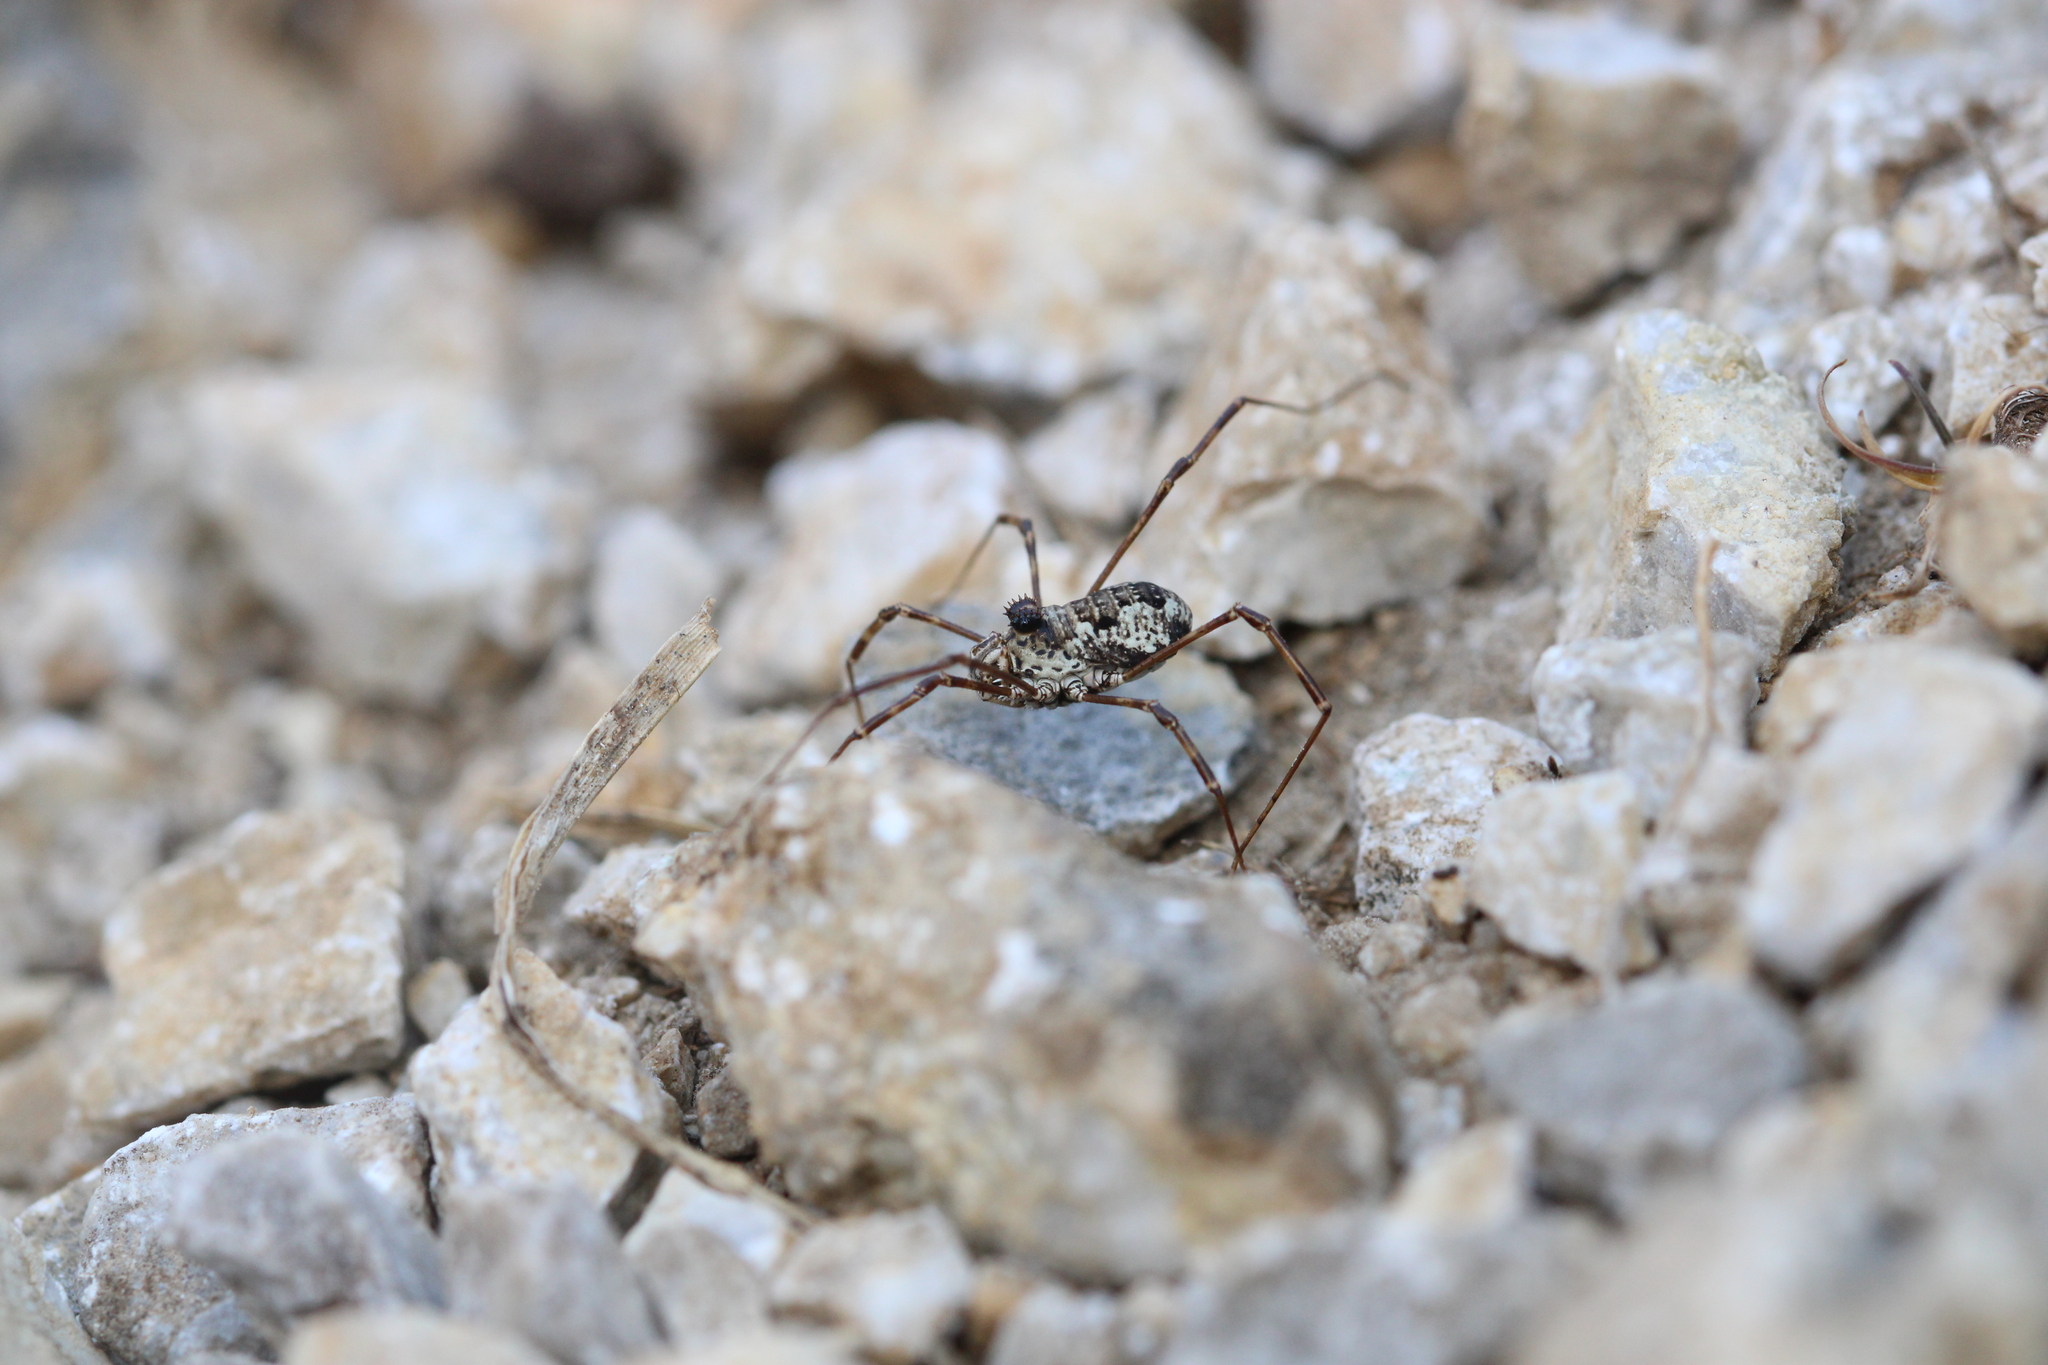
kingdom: Animalia
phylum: Arthropoda
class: Arachnida
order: Opiliones
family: Phalangiidae
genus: Megabunus
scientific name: Megabunus lesserti
